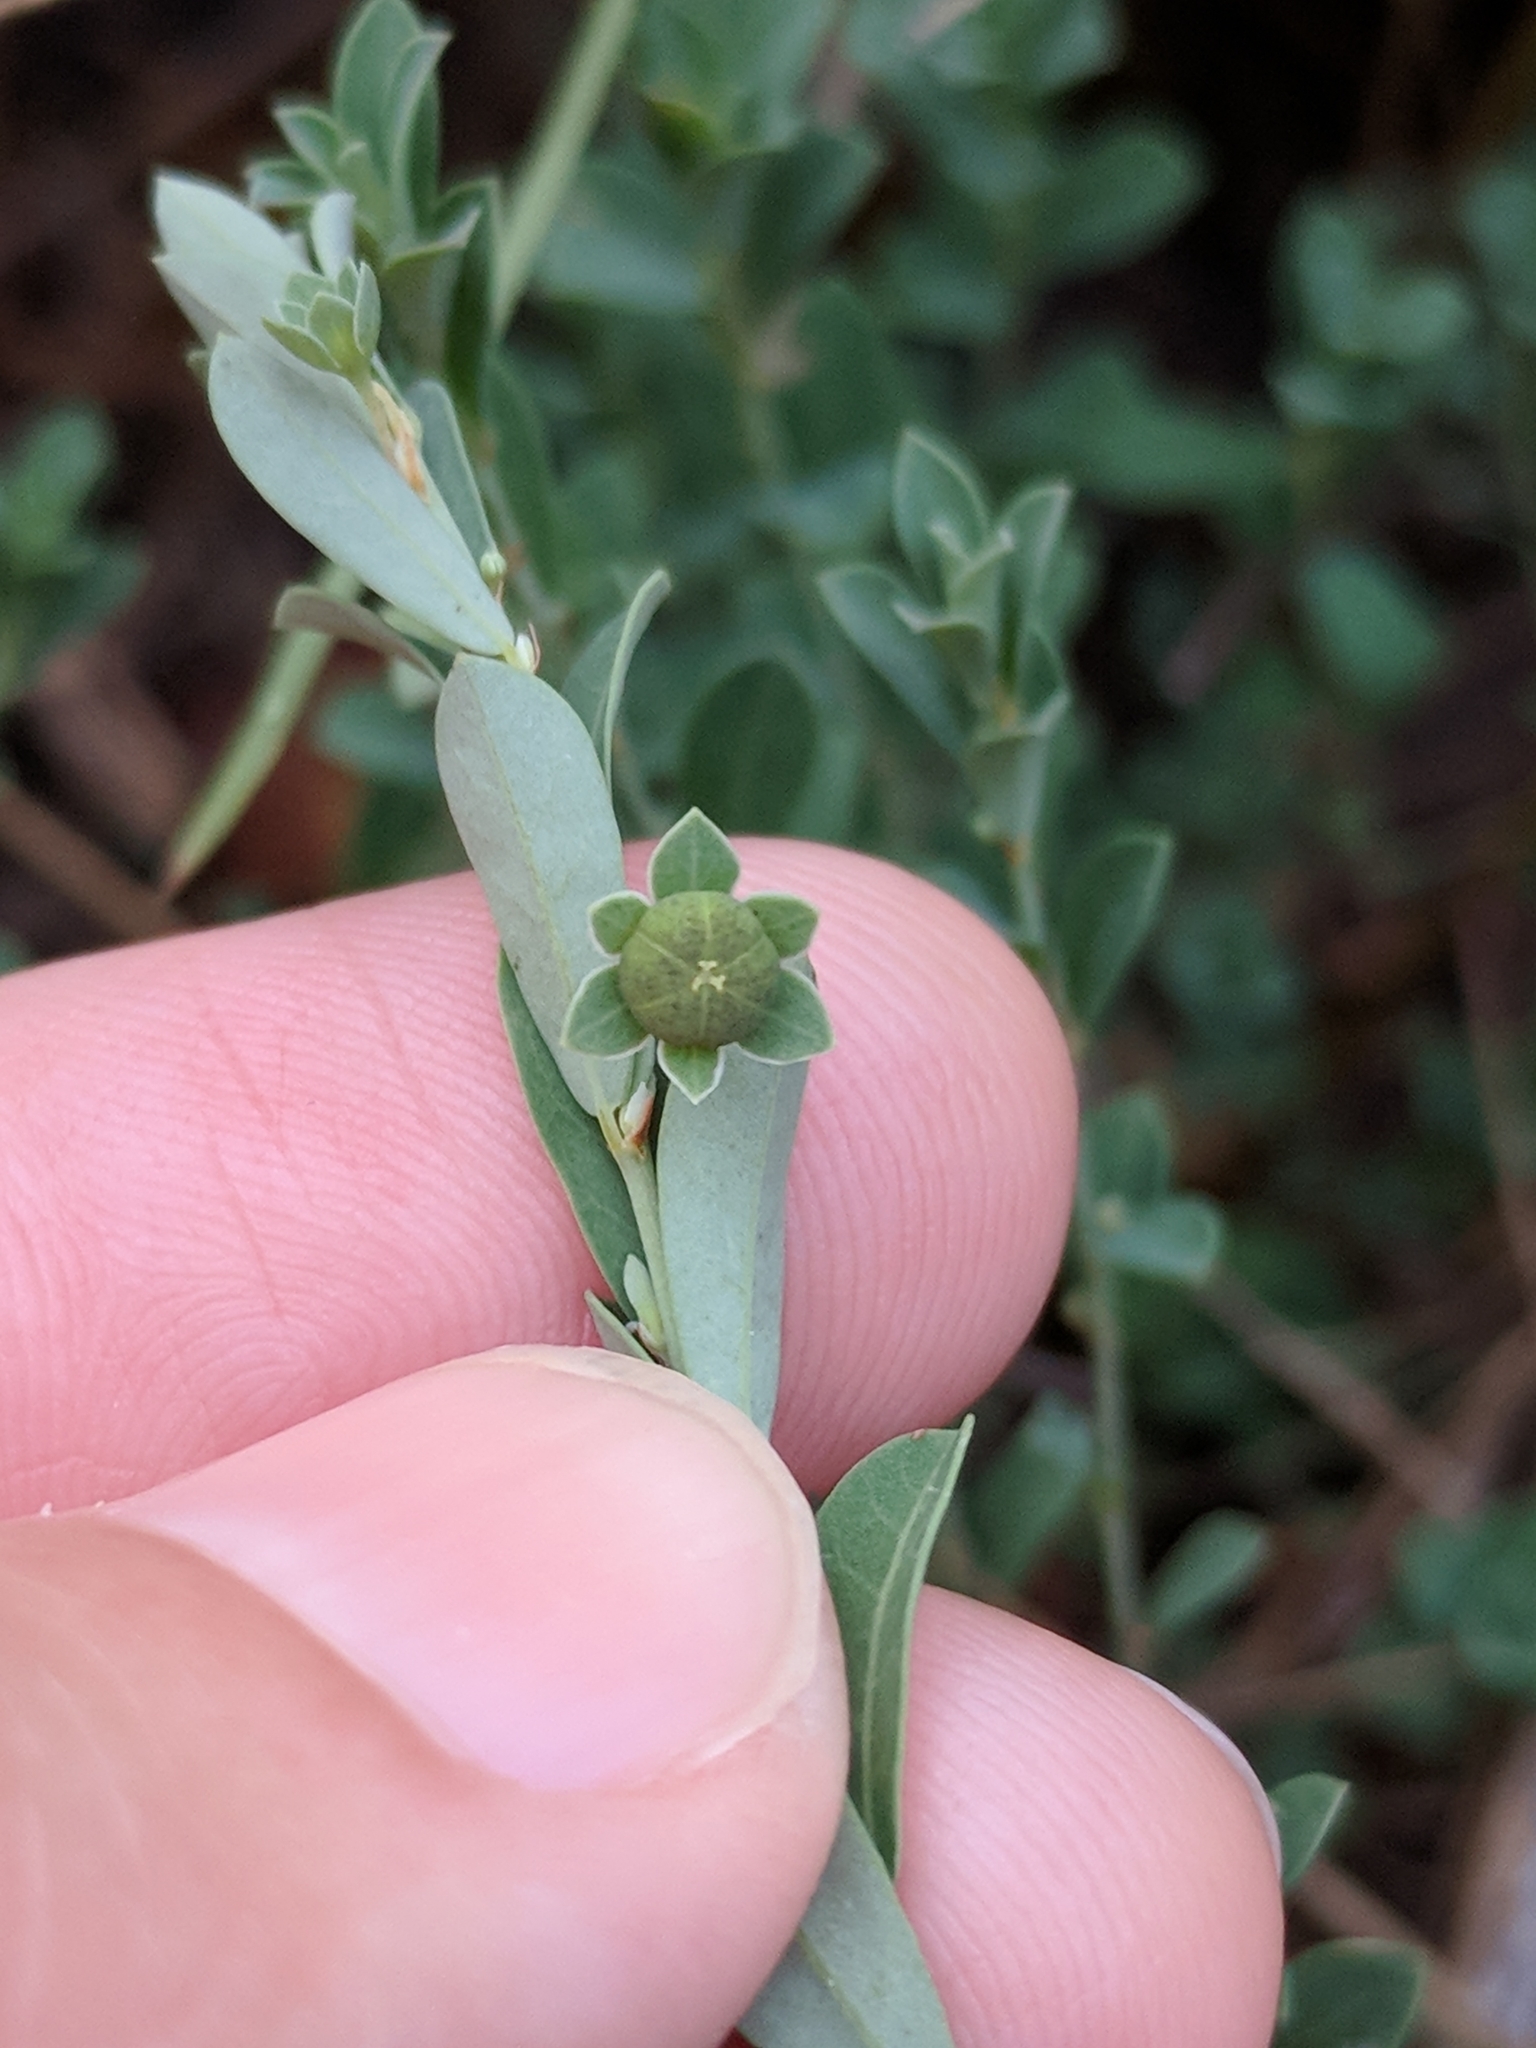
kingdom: Plantae
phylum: Tracheophyta
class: Magnoliopsida
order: Malpighiales
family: Phyllanthaceae
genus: Phyllanthus
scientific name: Phyllanthus polygonoides
